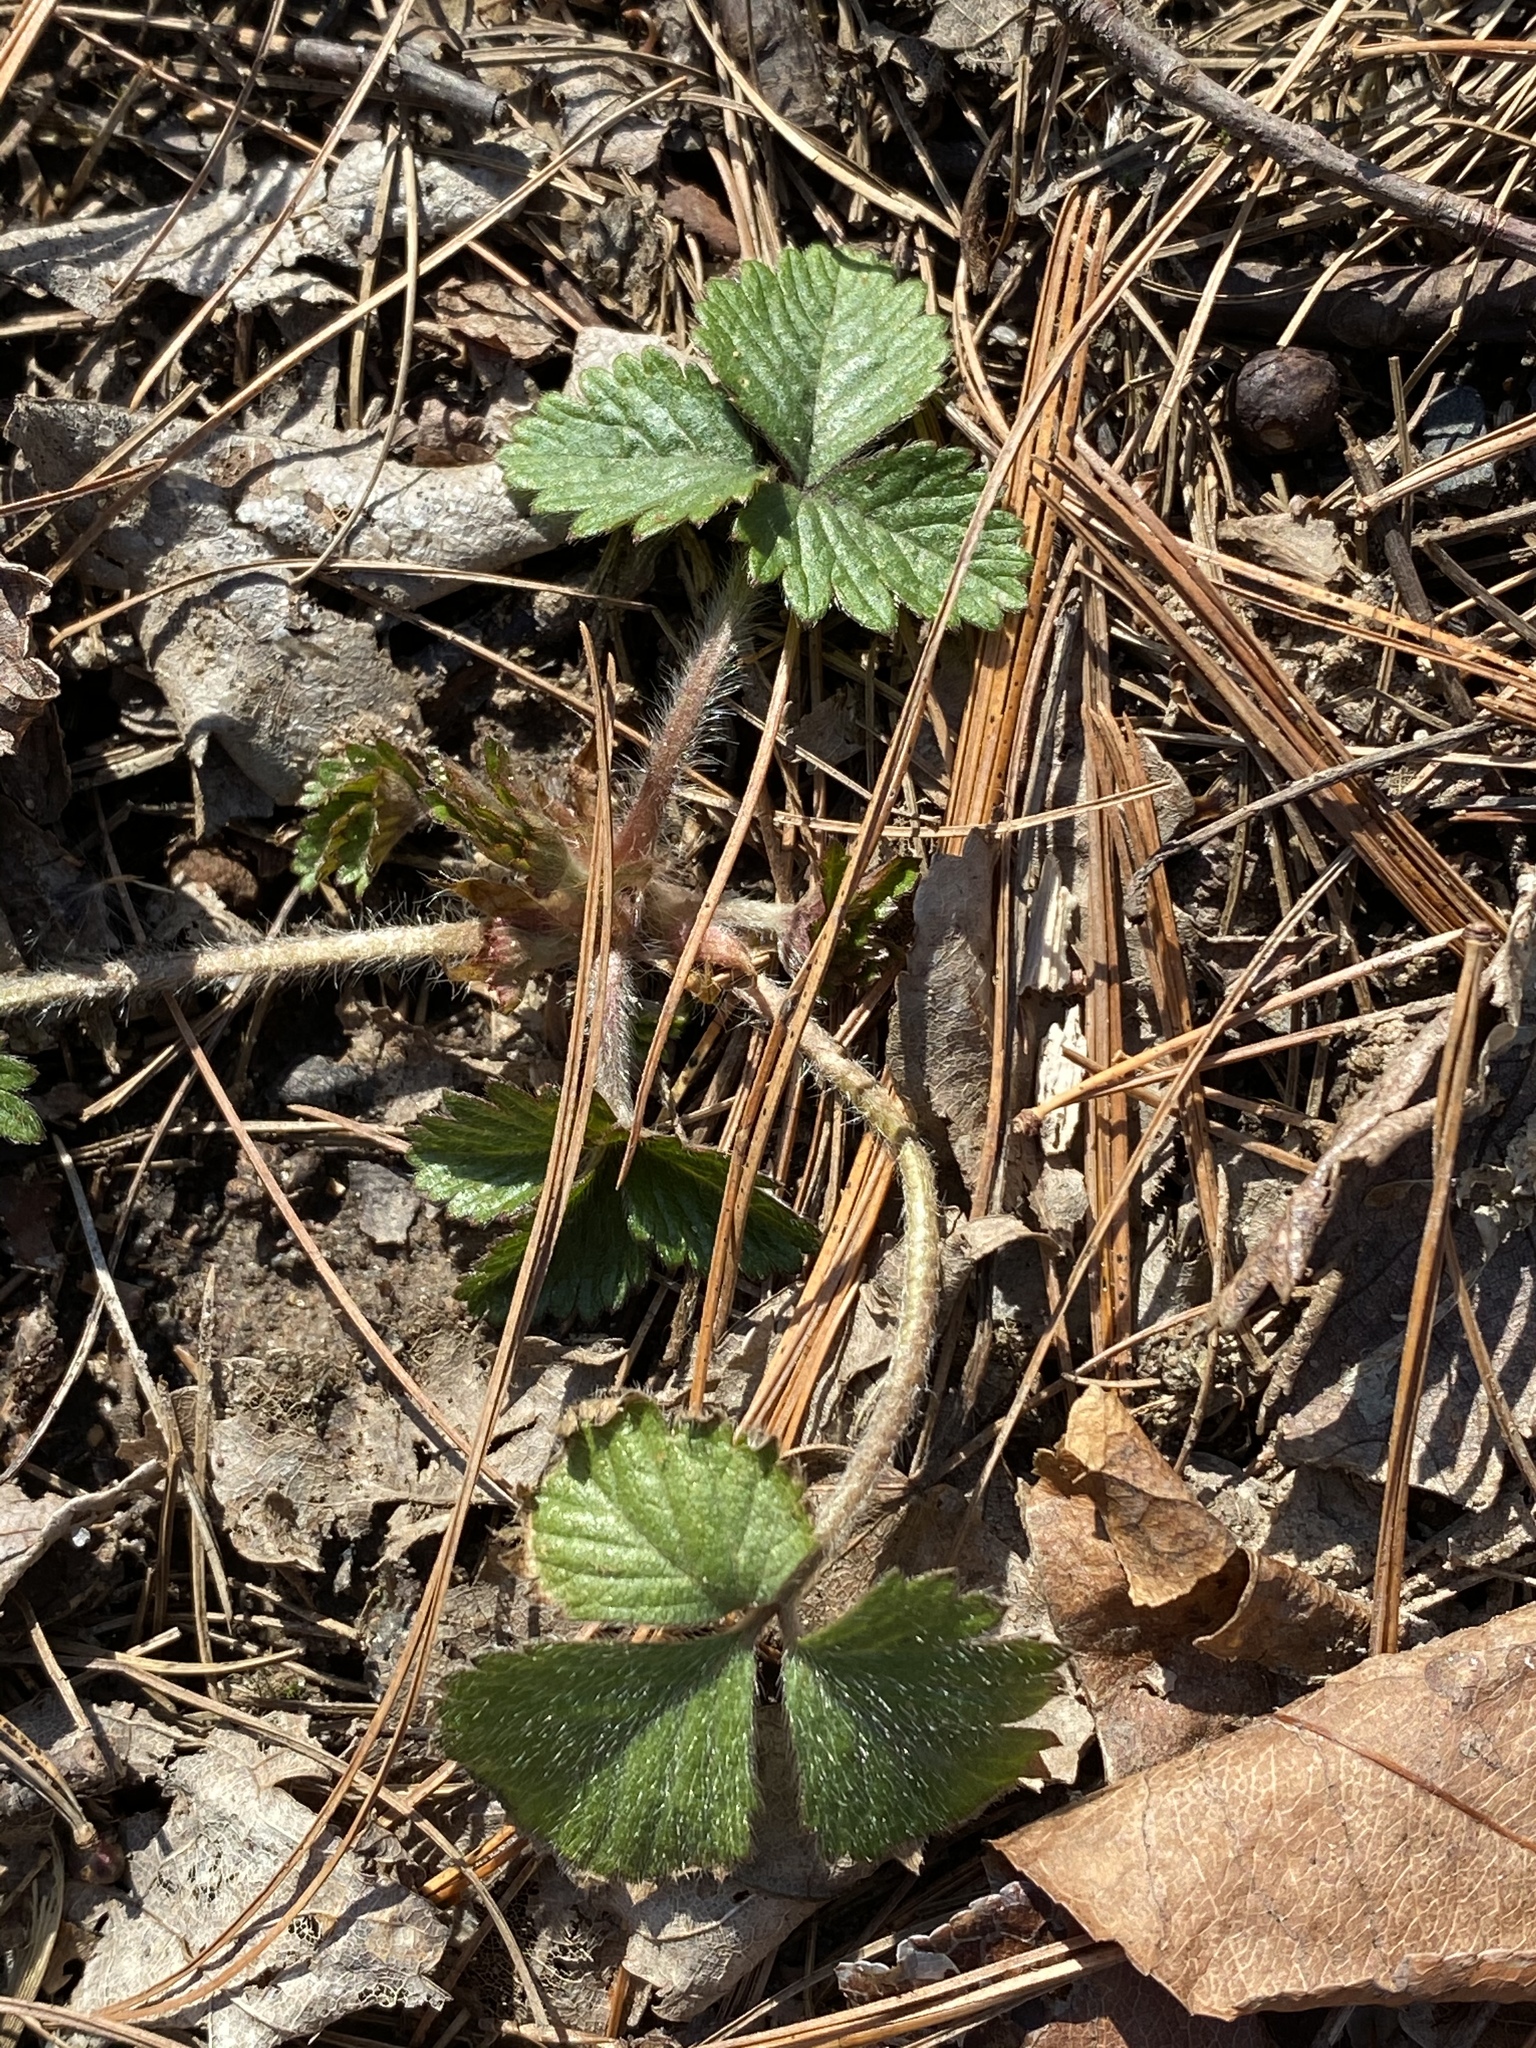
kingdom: Plantae
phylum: Tracheophyta
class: Magnoliopsida
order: Rosales
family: Rosaceae
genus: Potentilla
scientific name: Potentilla indica
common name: Yellow-flowered strawberry
